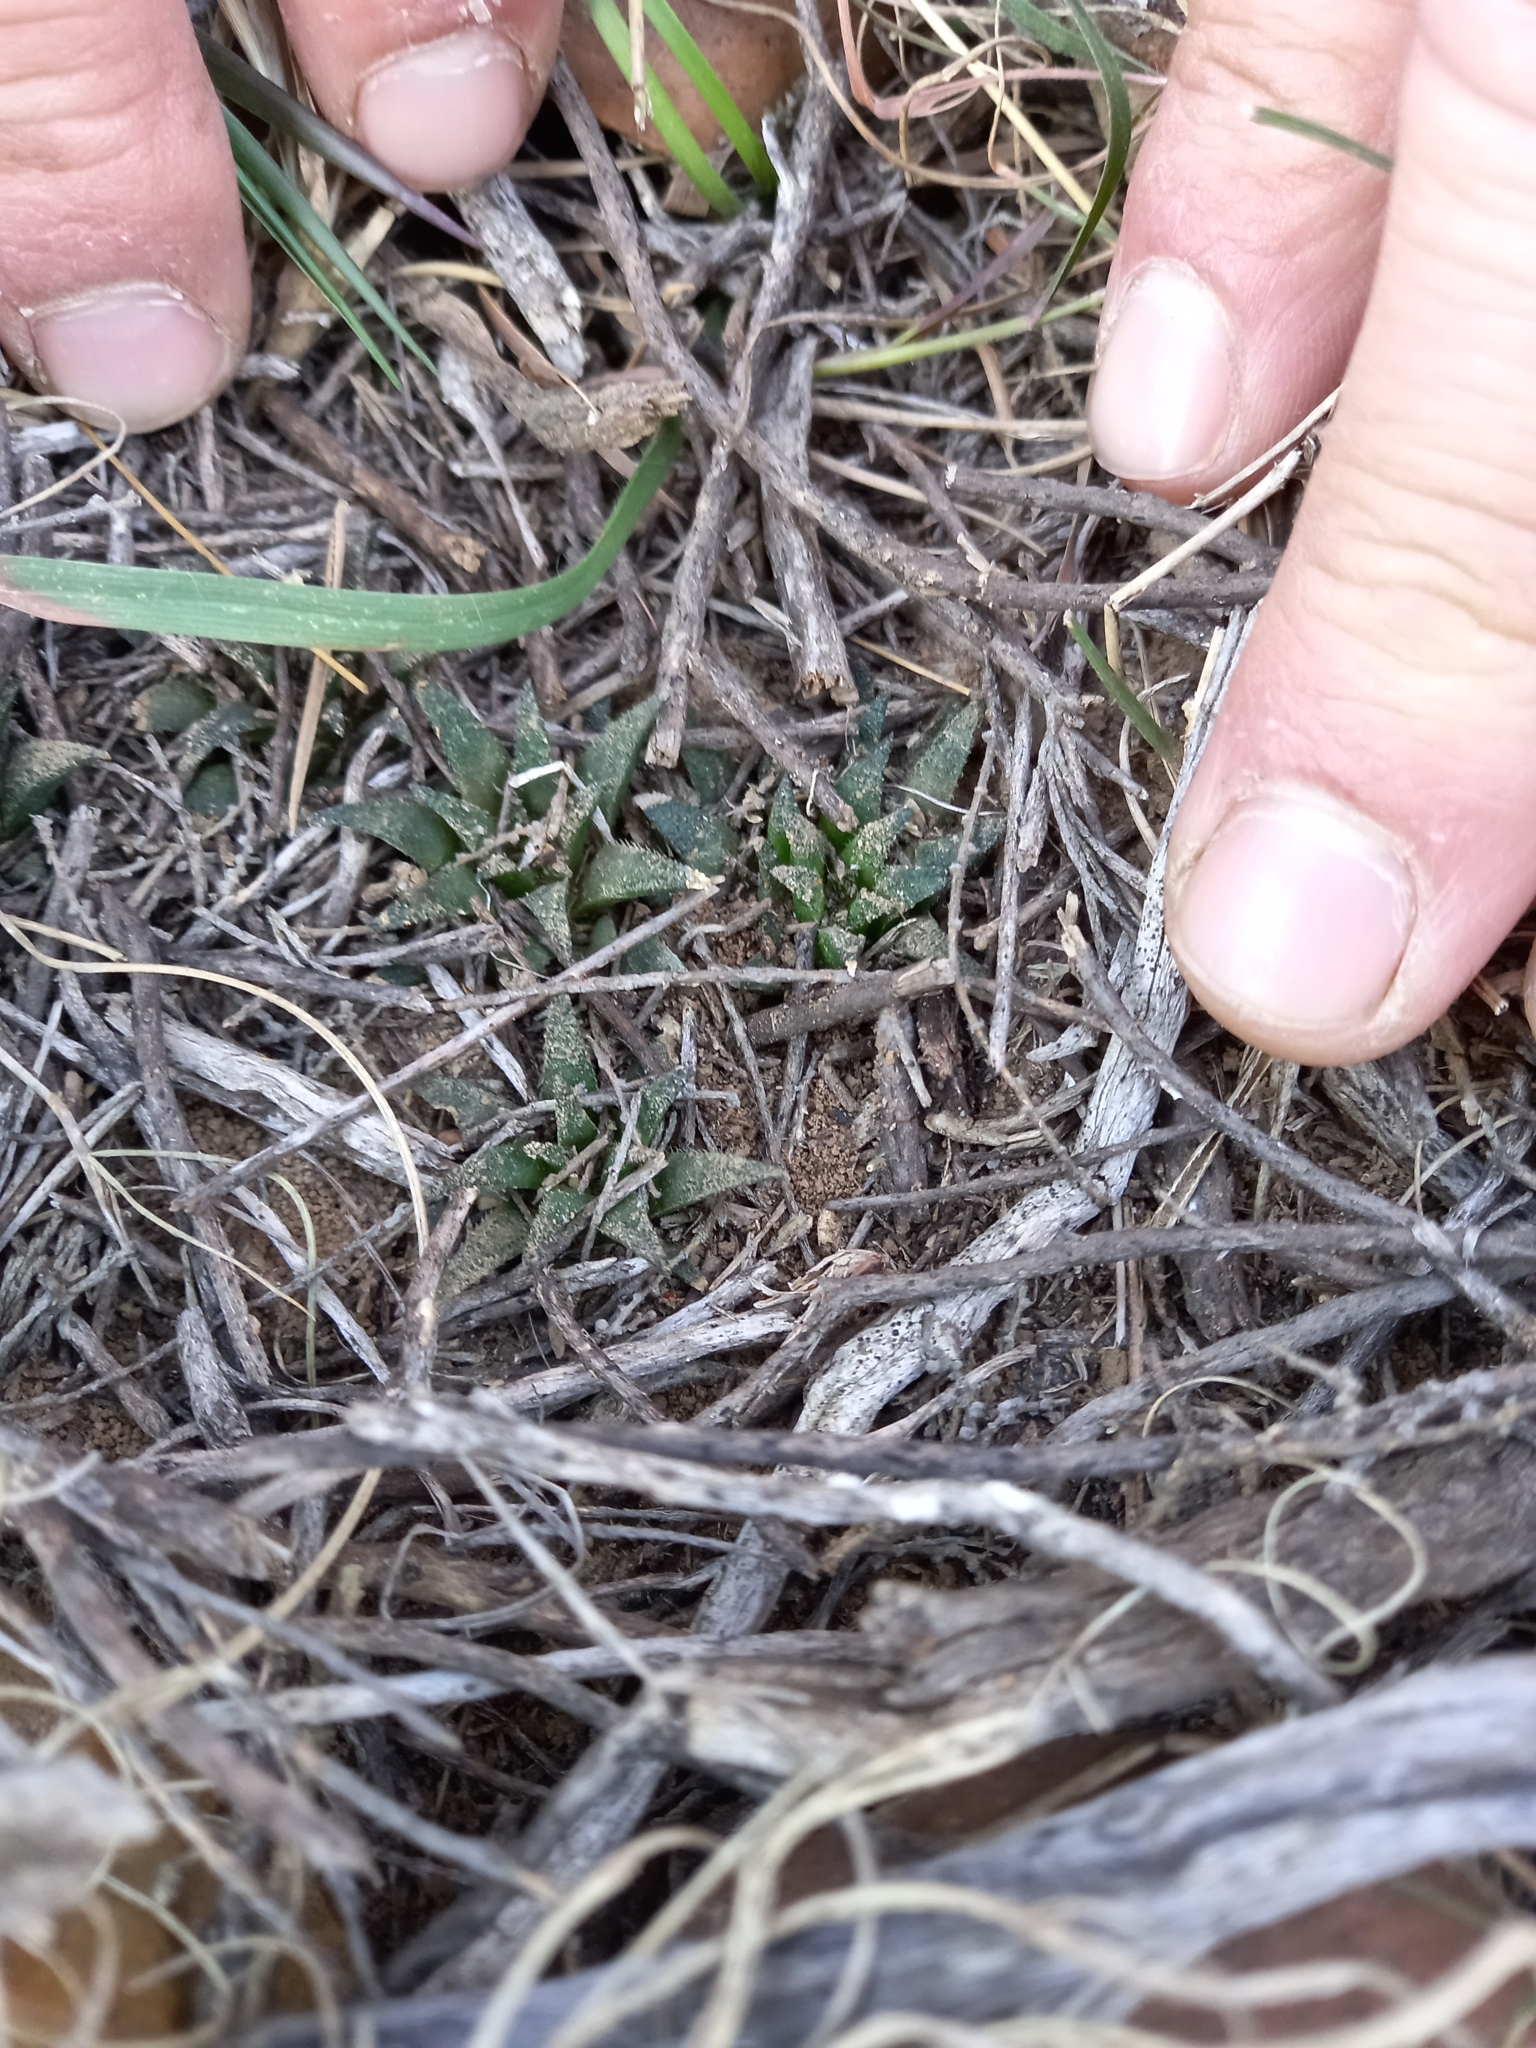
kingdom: Plantae
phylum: Tracheophyta
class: Liliopsida
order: Asparagales
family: Asphodelaceae
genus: Haworthia
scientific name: Haworthia parksiana
